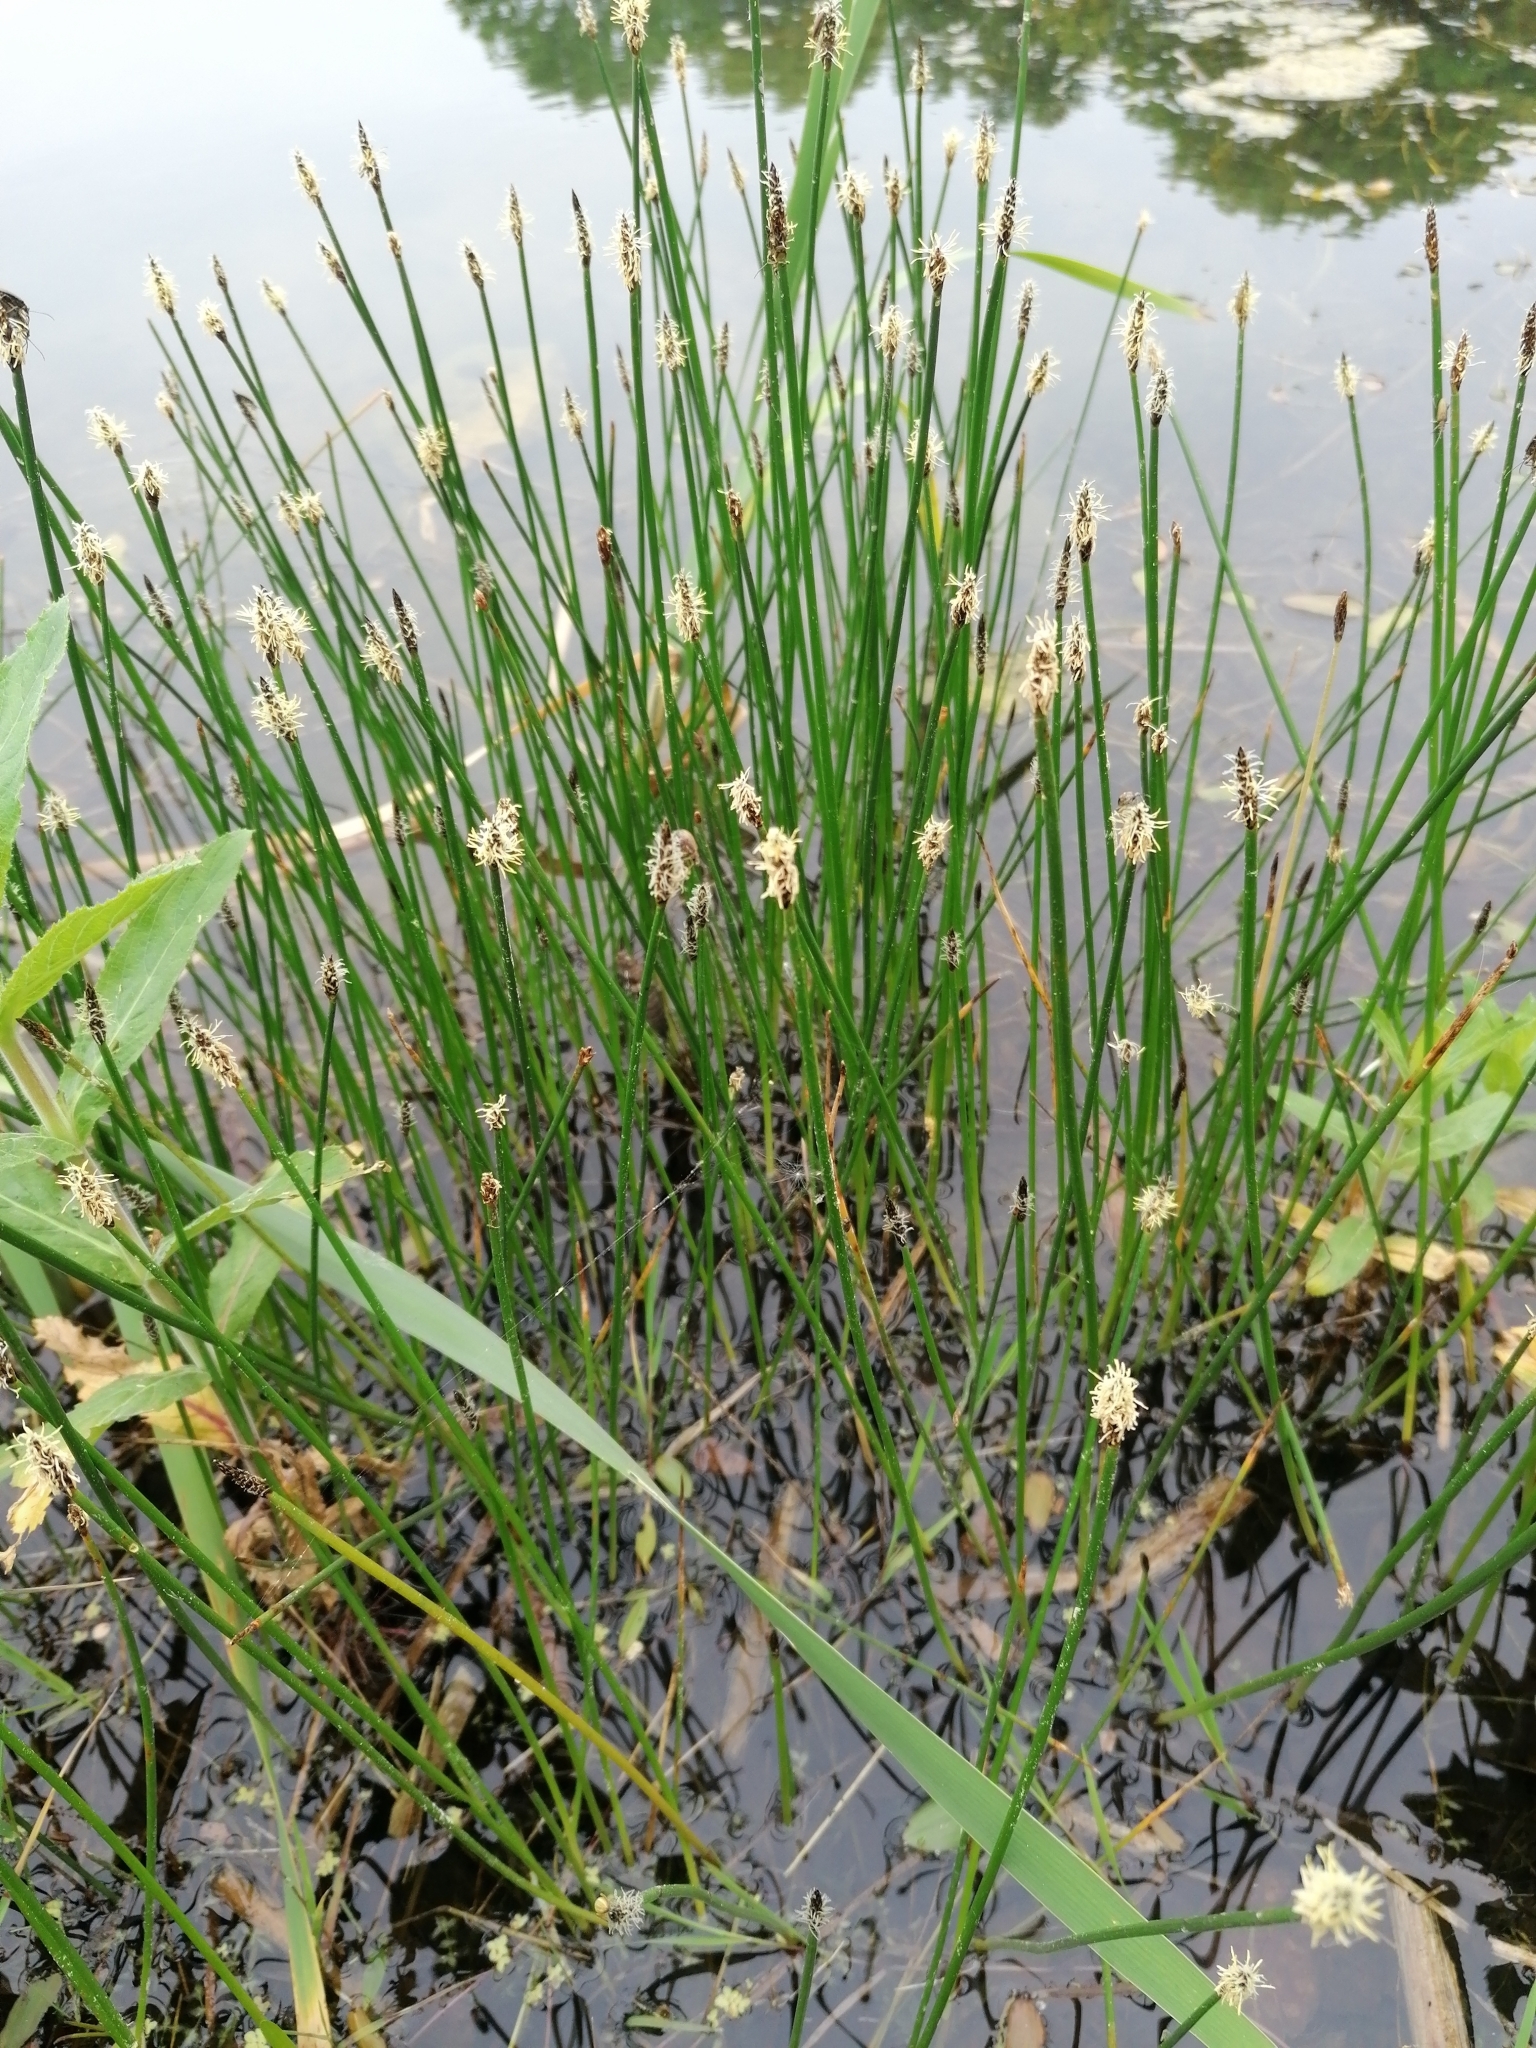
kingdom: Plantae
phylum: Tracheophyta
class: Liliopsida
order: Poales
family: Cyperaceae
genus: Eleocharis
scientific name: Eleocharis palustris
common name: Common spike-rush
